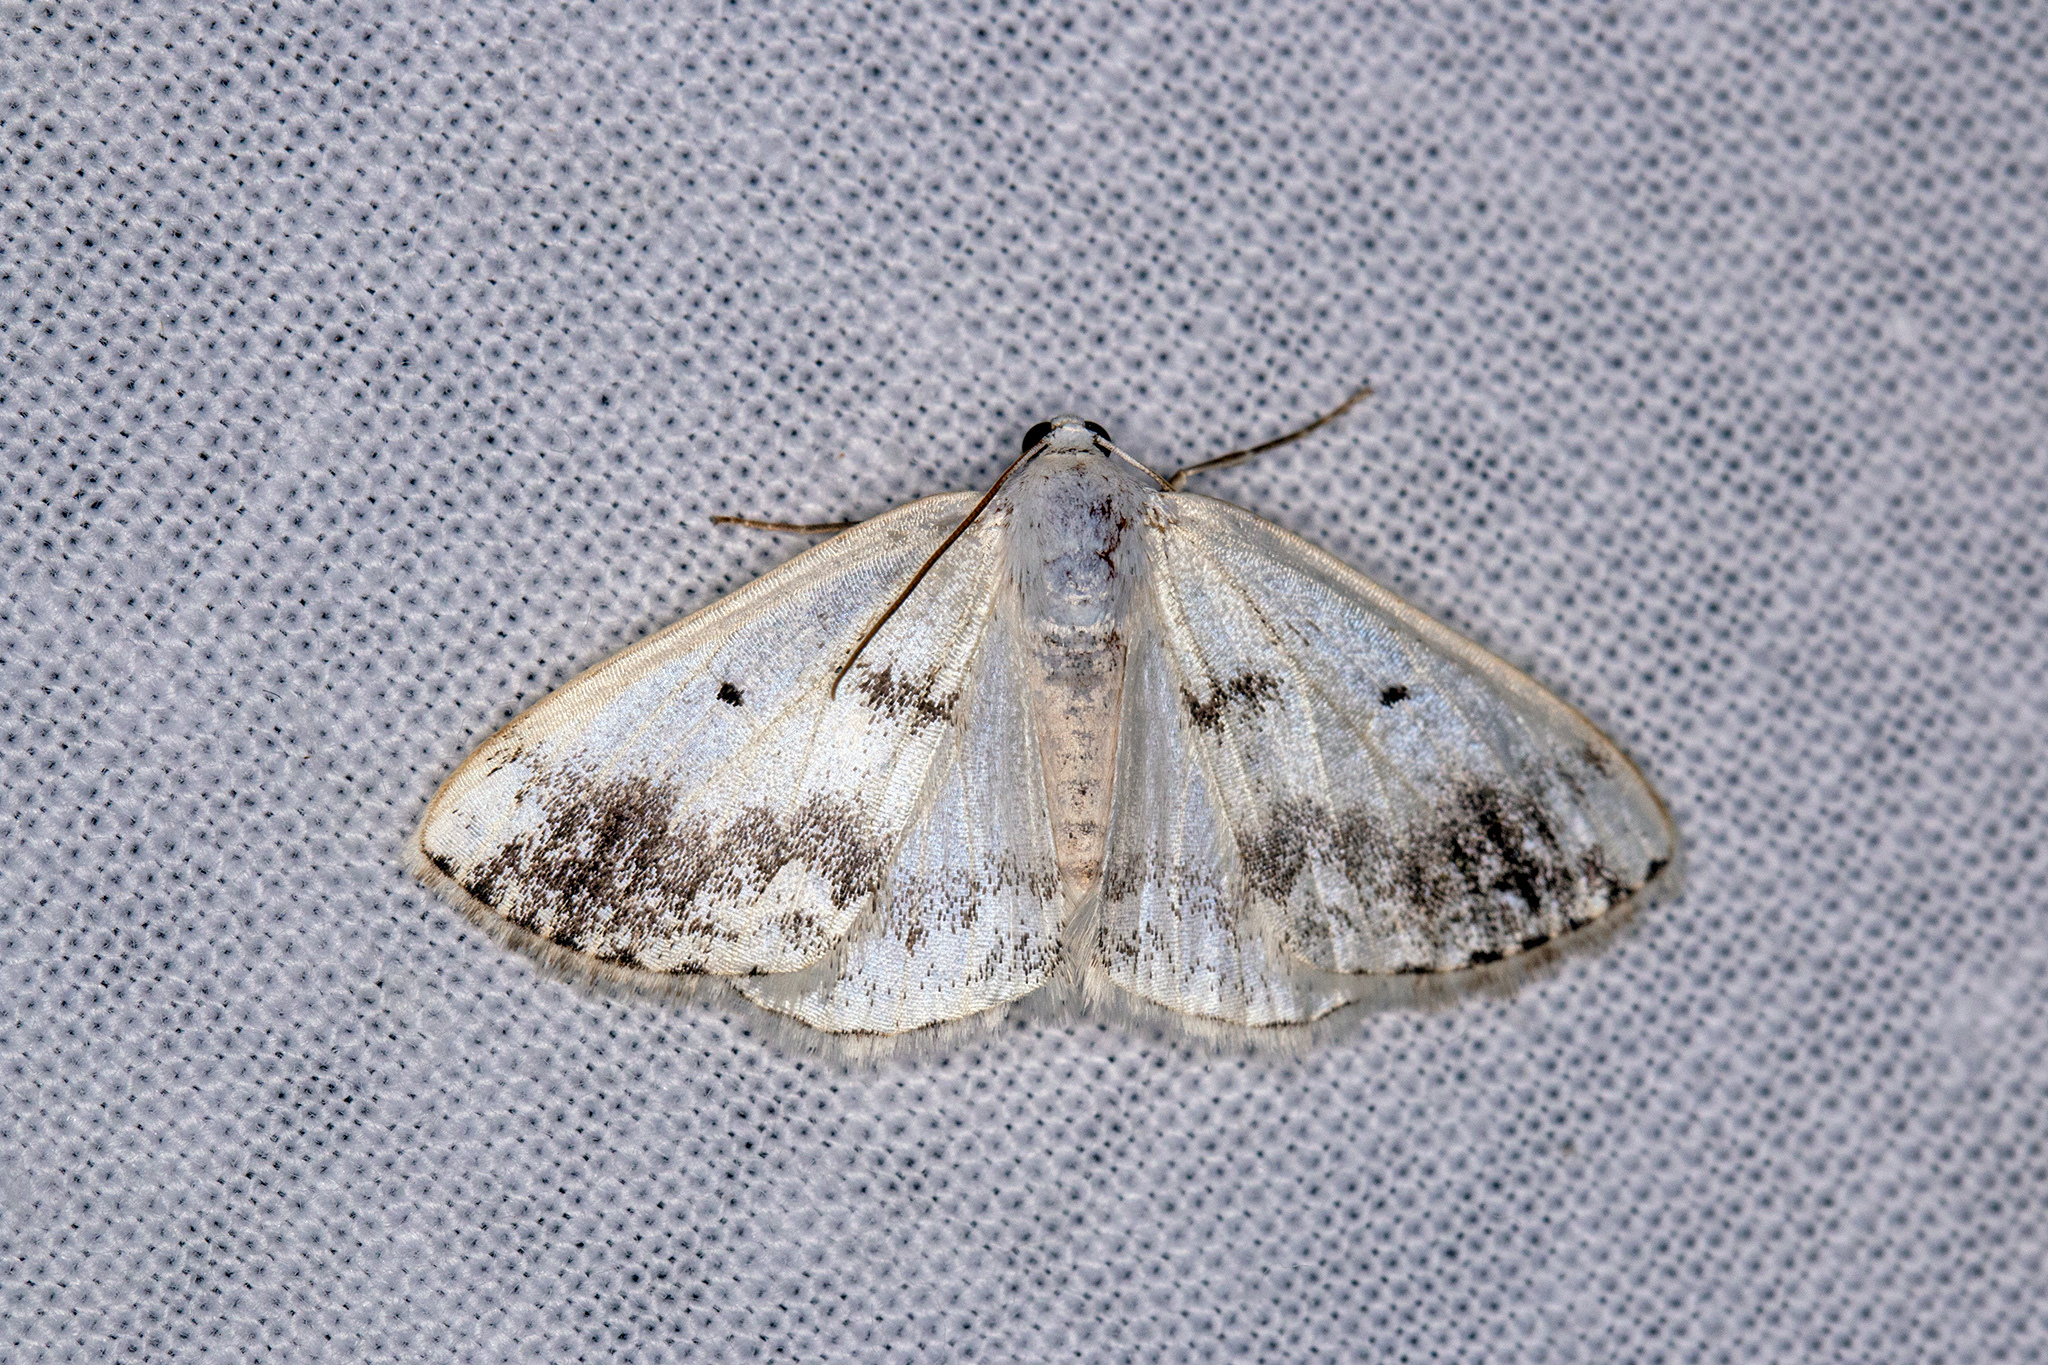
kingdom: Animalia
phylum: Arthropoda
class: Insecta
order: Lepidoptera
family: Geometridae
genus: Lomographa
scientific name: Lomographa temerata
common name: Clouded silver
